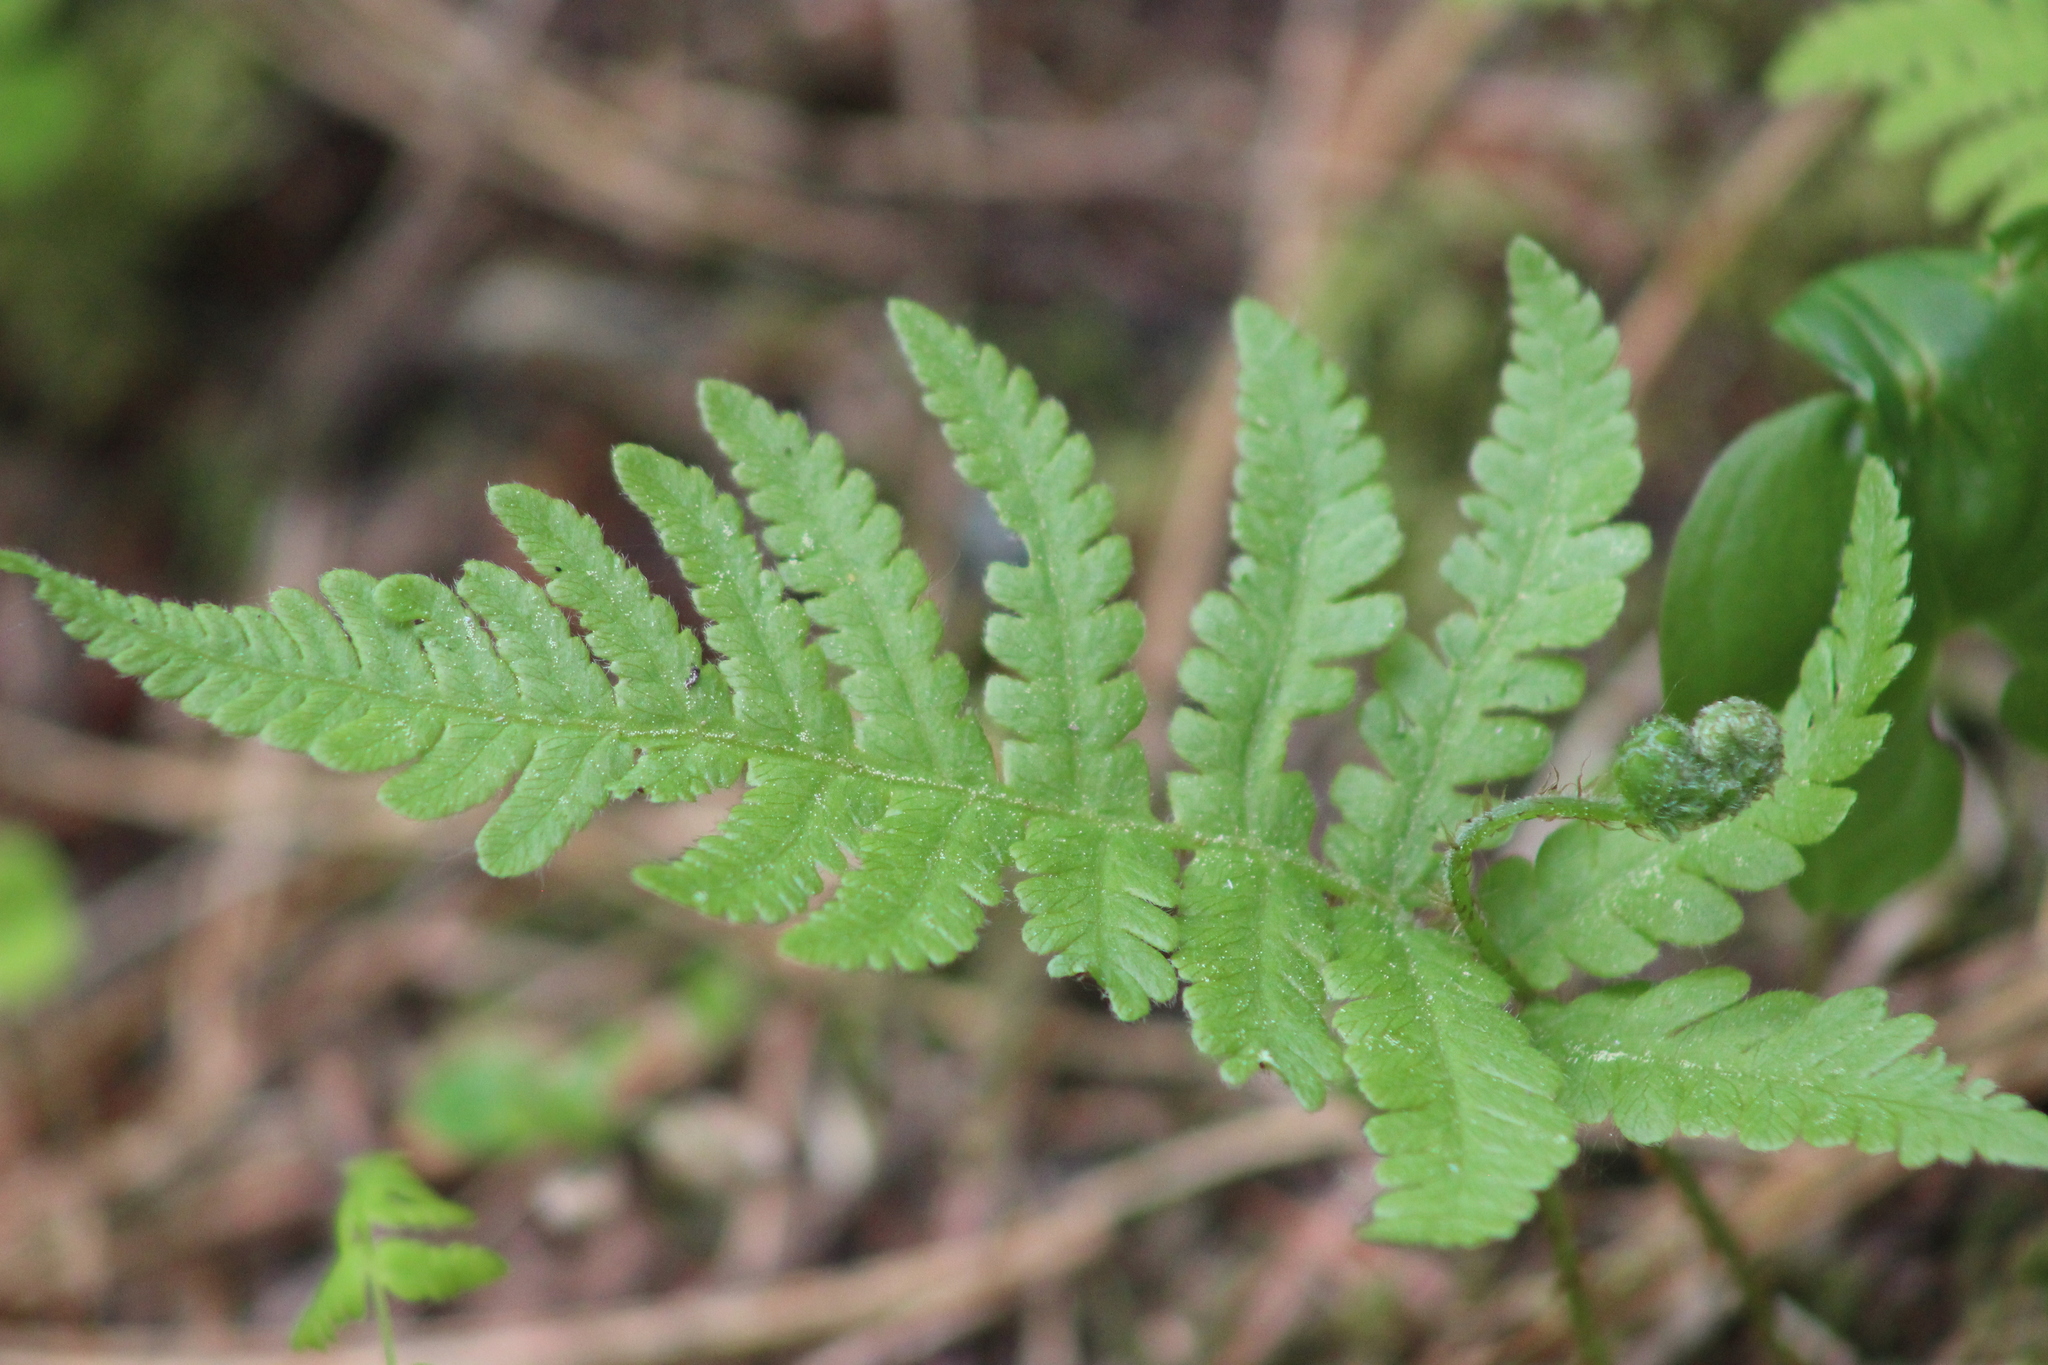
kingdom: Plantae
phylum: Tracheophyta
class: Polypodiopsida
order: Polypodiales
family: Thelypteridaceae
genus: Phegopteris
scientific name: Phegopteris connectilis
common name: Beech fern
